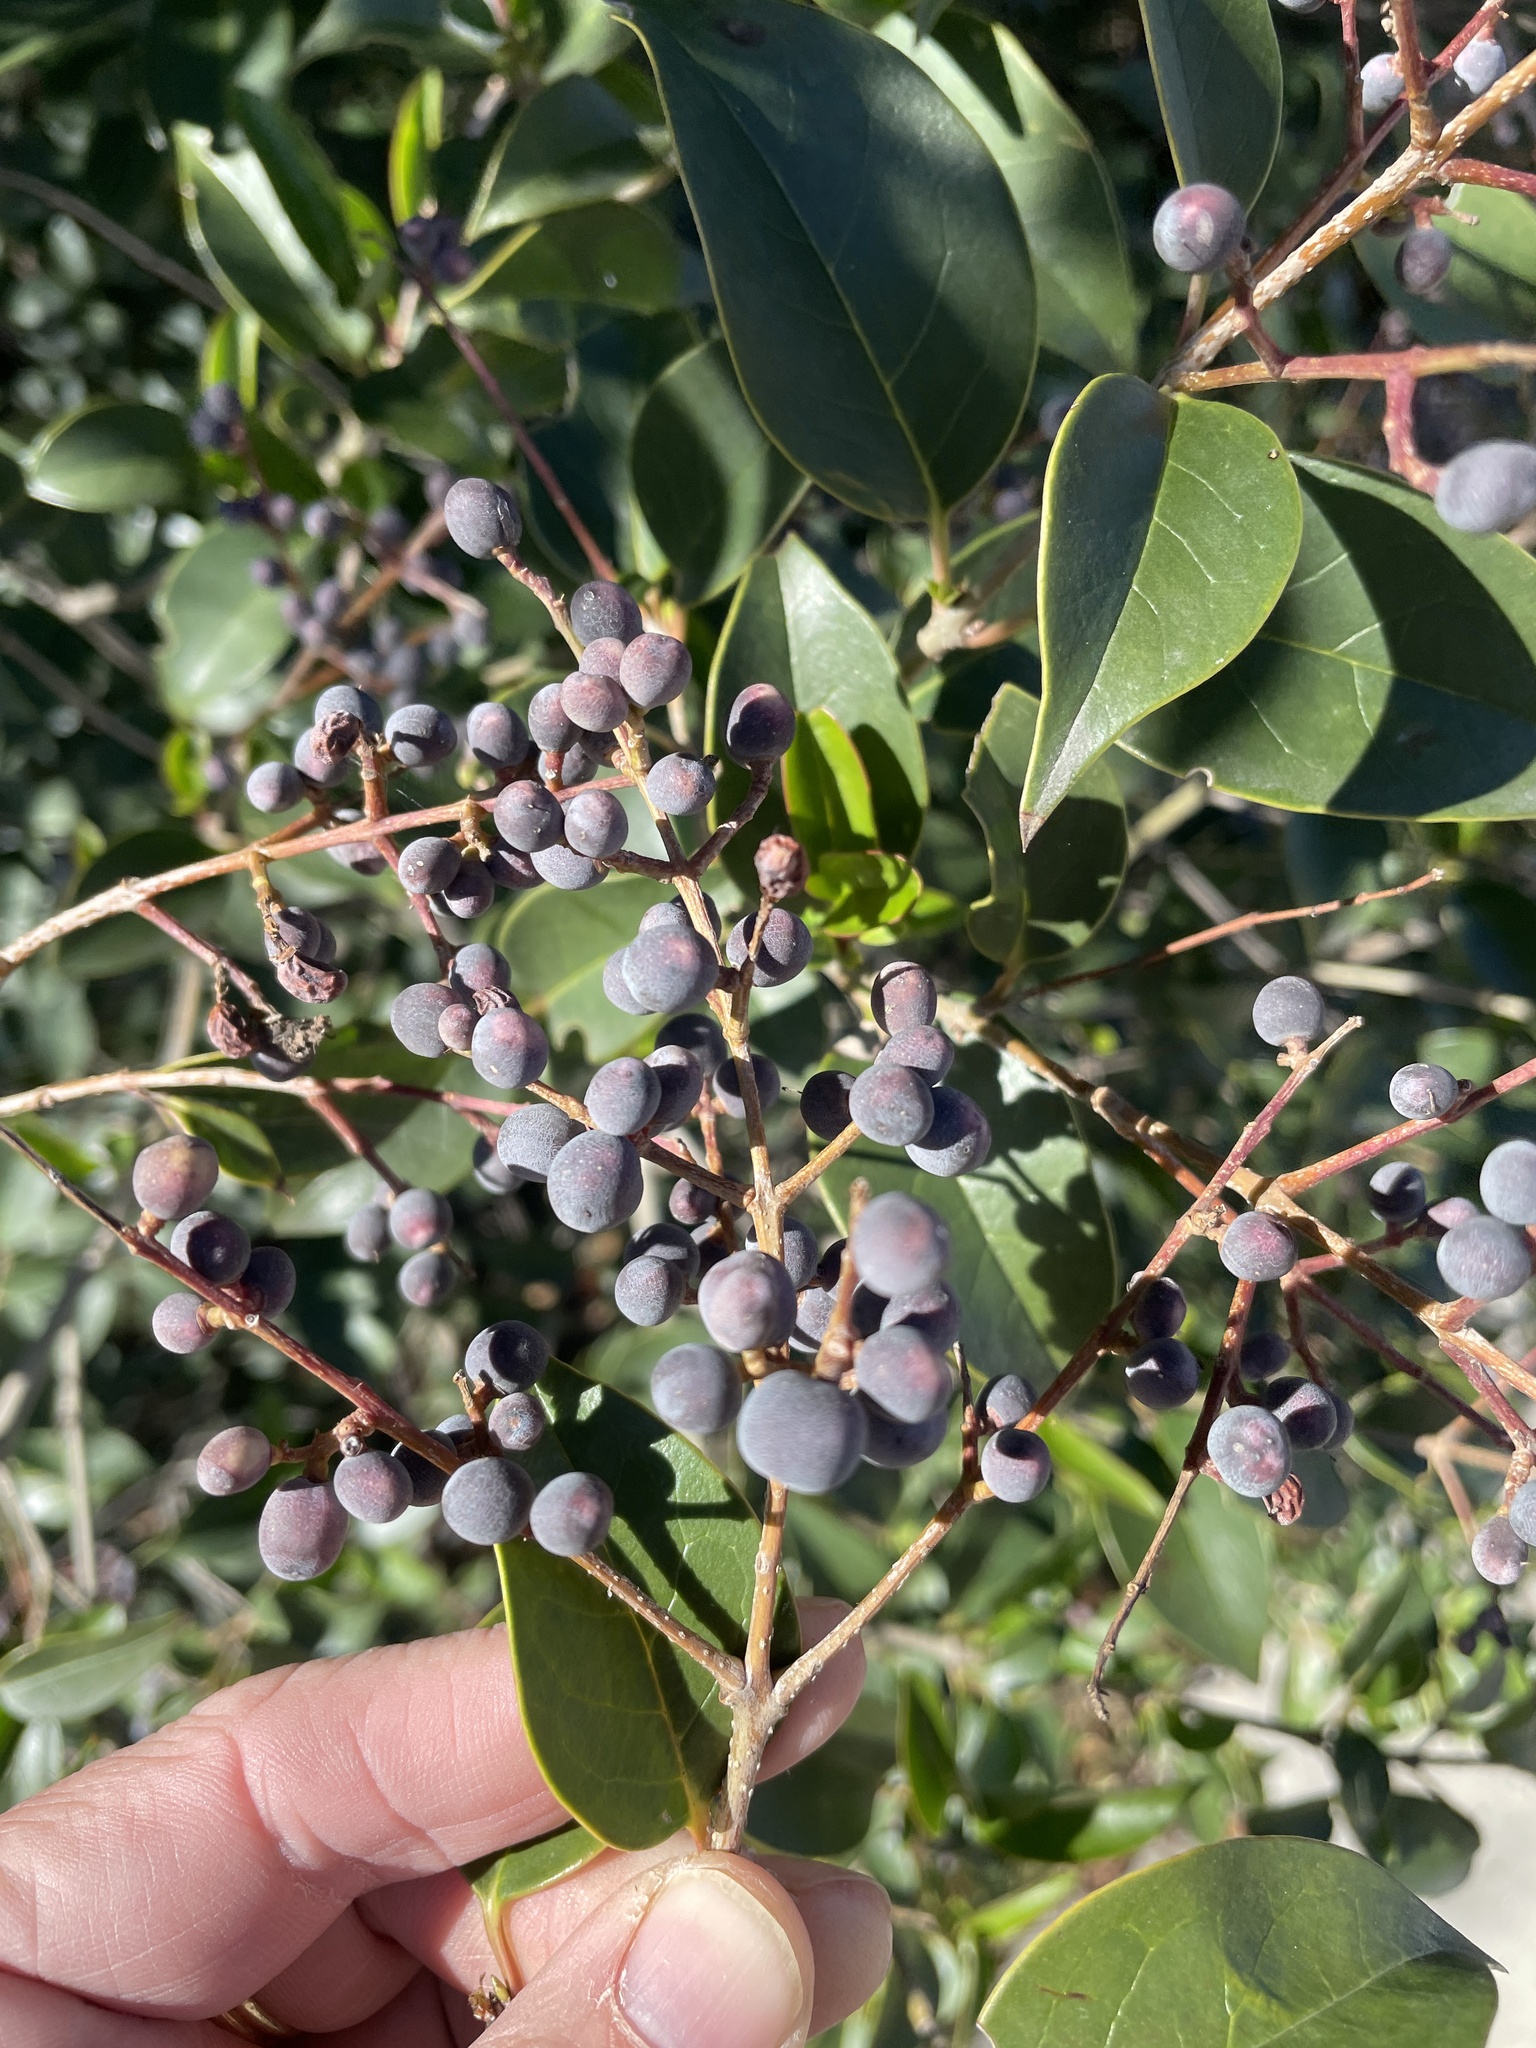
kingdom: Plantae
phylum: Tracheophyta
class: Magnoliopsida
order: Lamiales
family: Oleaceae
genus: Ligustrum
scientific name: Ligustrum lucidum
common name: Glossy privet
